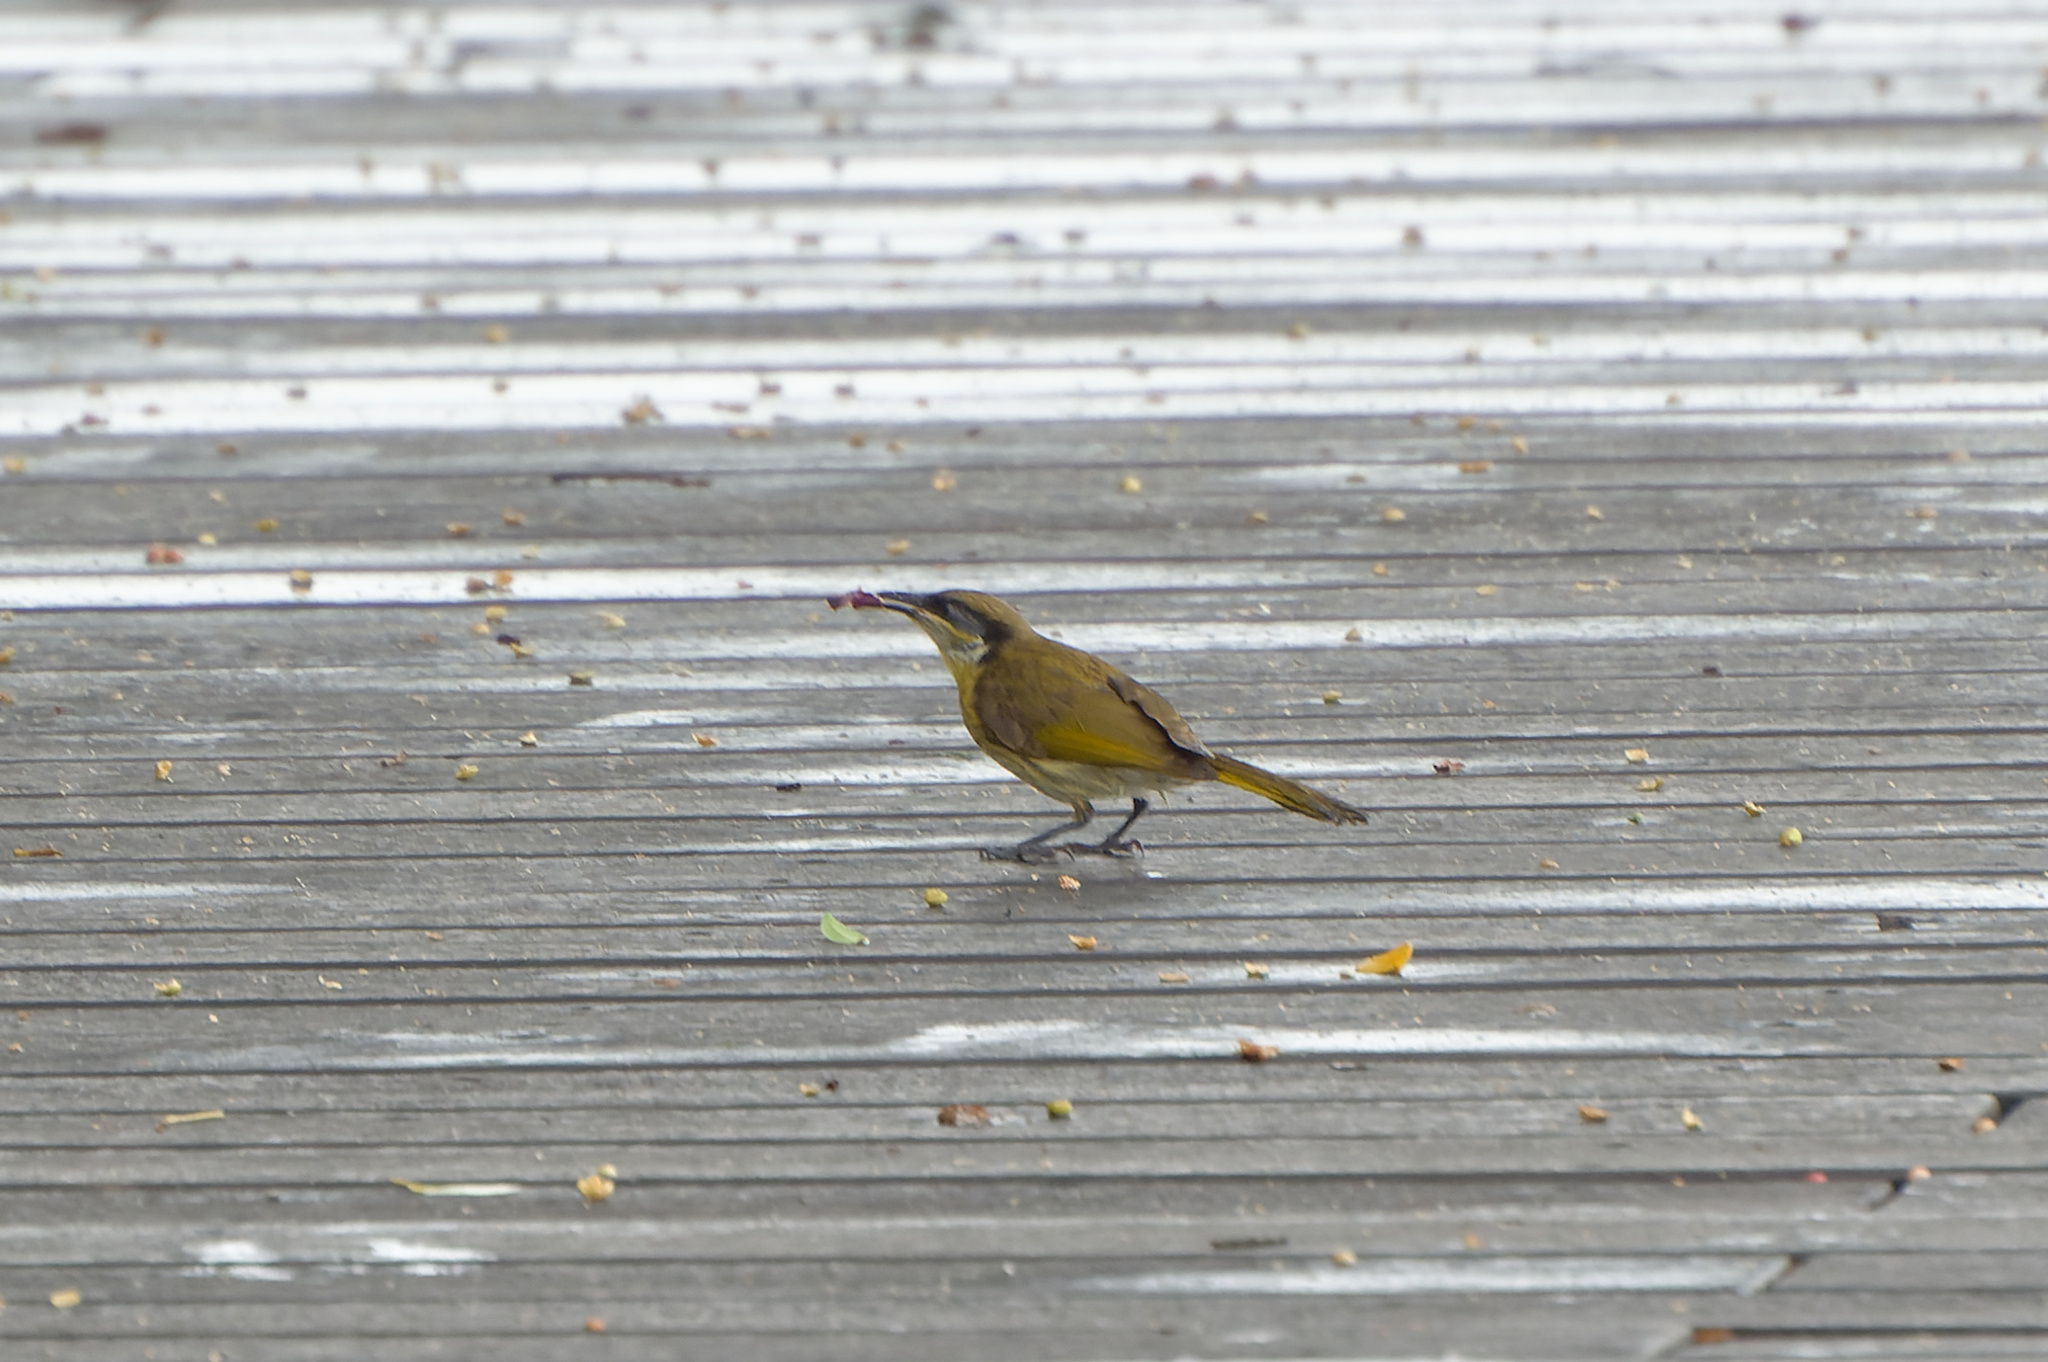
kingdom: Animalia
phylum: Chordata
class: Aves
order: Passeriformes
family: Meliphagidae
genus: Gavicalis
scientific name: Gavicalis versicolor
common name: Varied honeyeater
